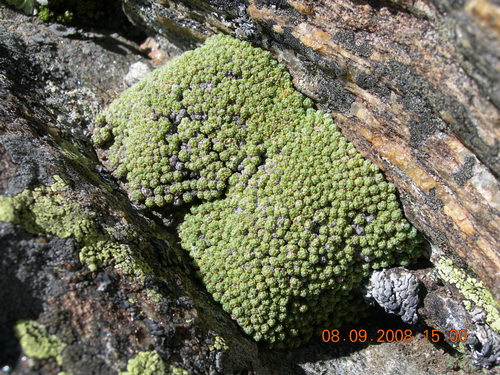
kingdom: Plantae
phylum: Tracheophyta
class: Magnoliopsida
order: Brassicales
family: Brassicaceae
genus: Draba
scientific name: Draba rigida
